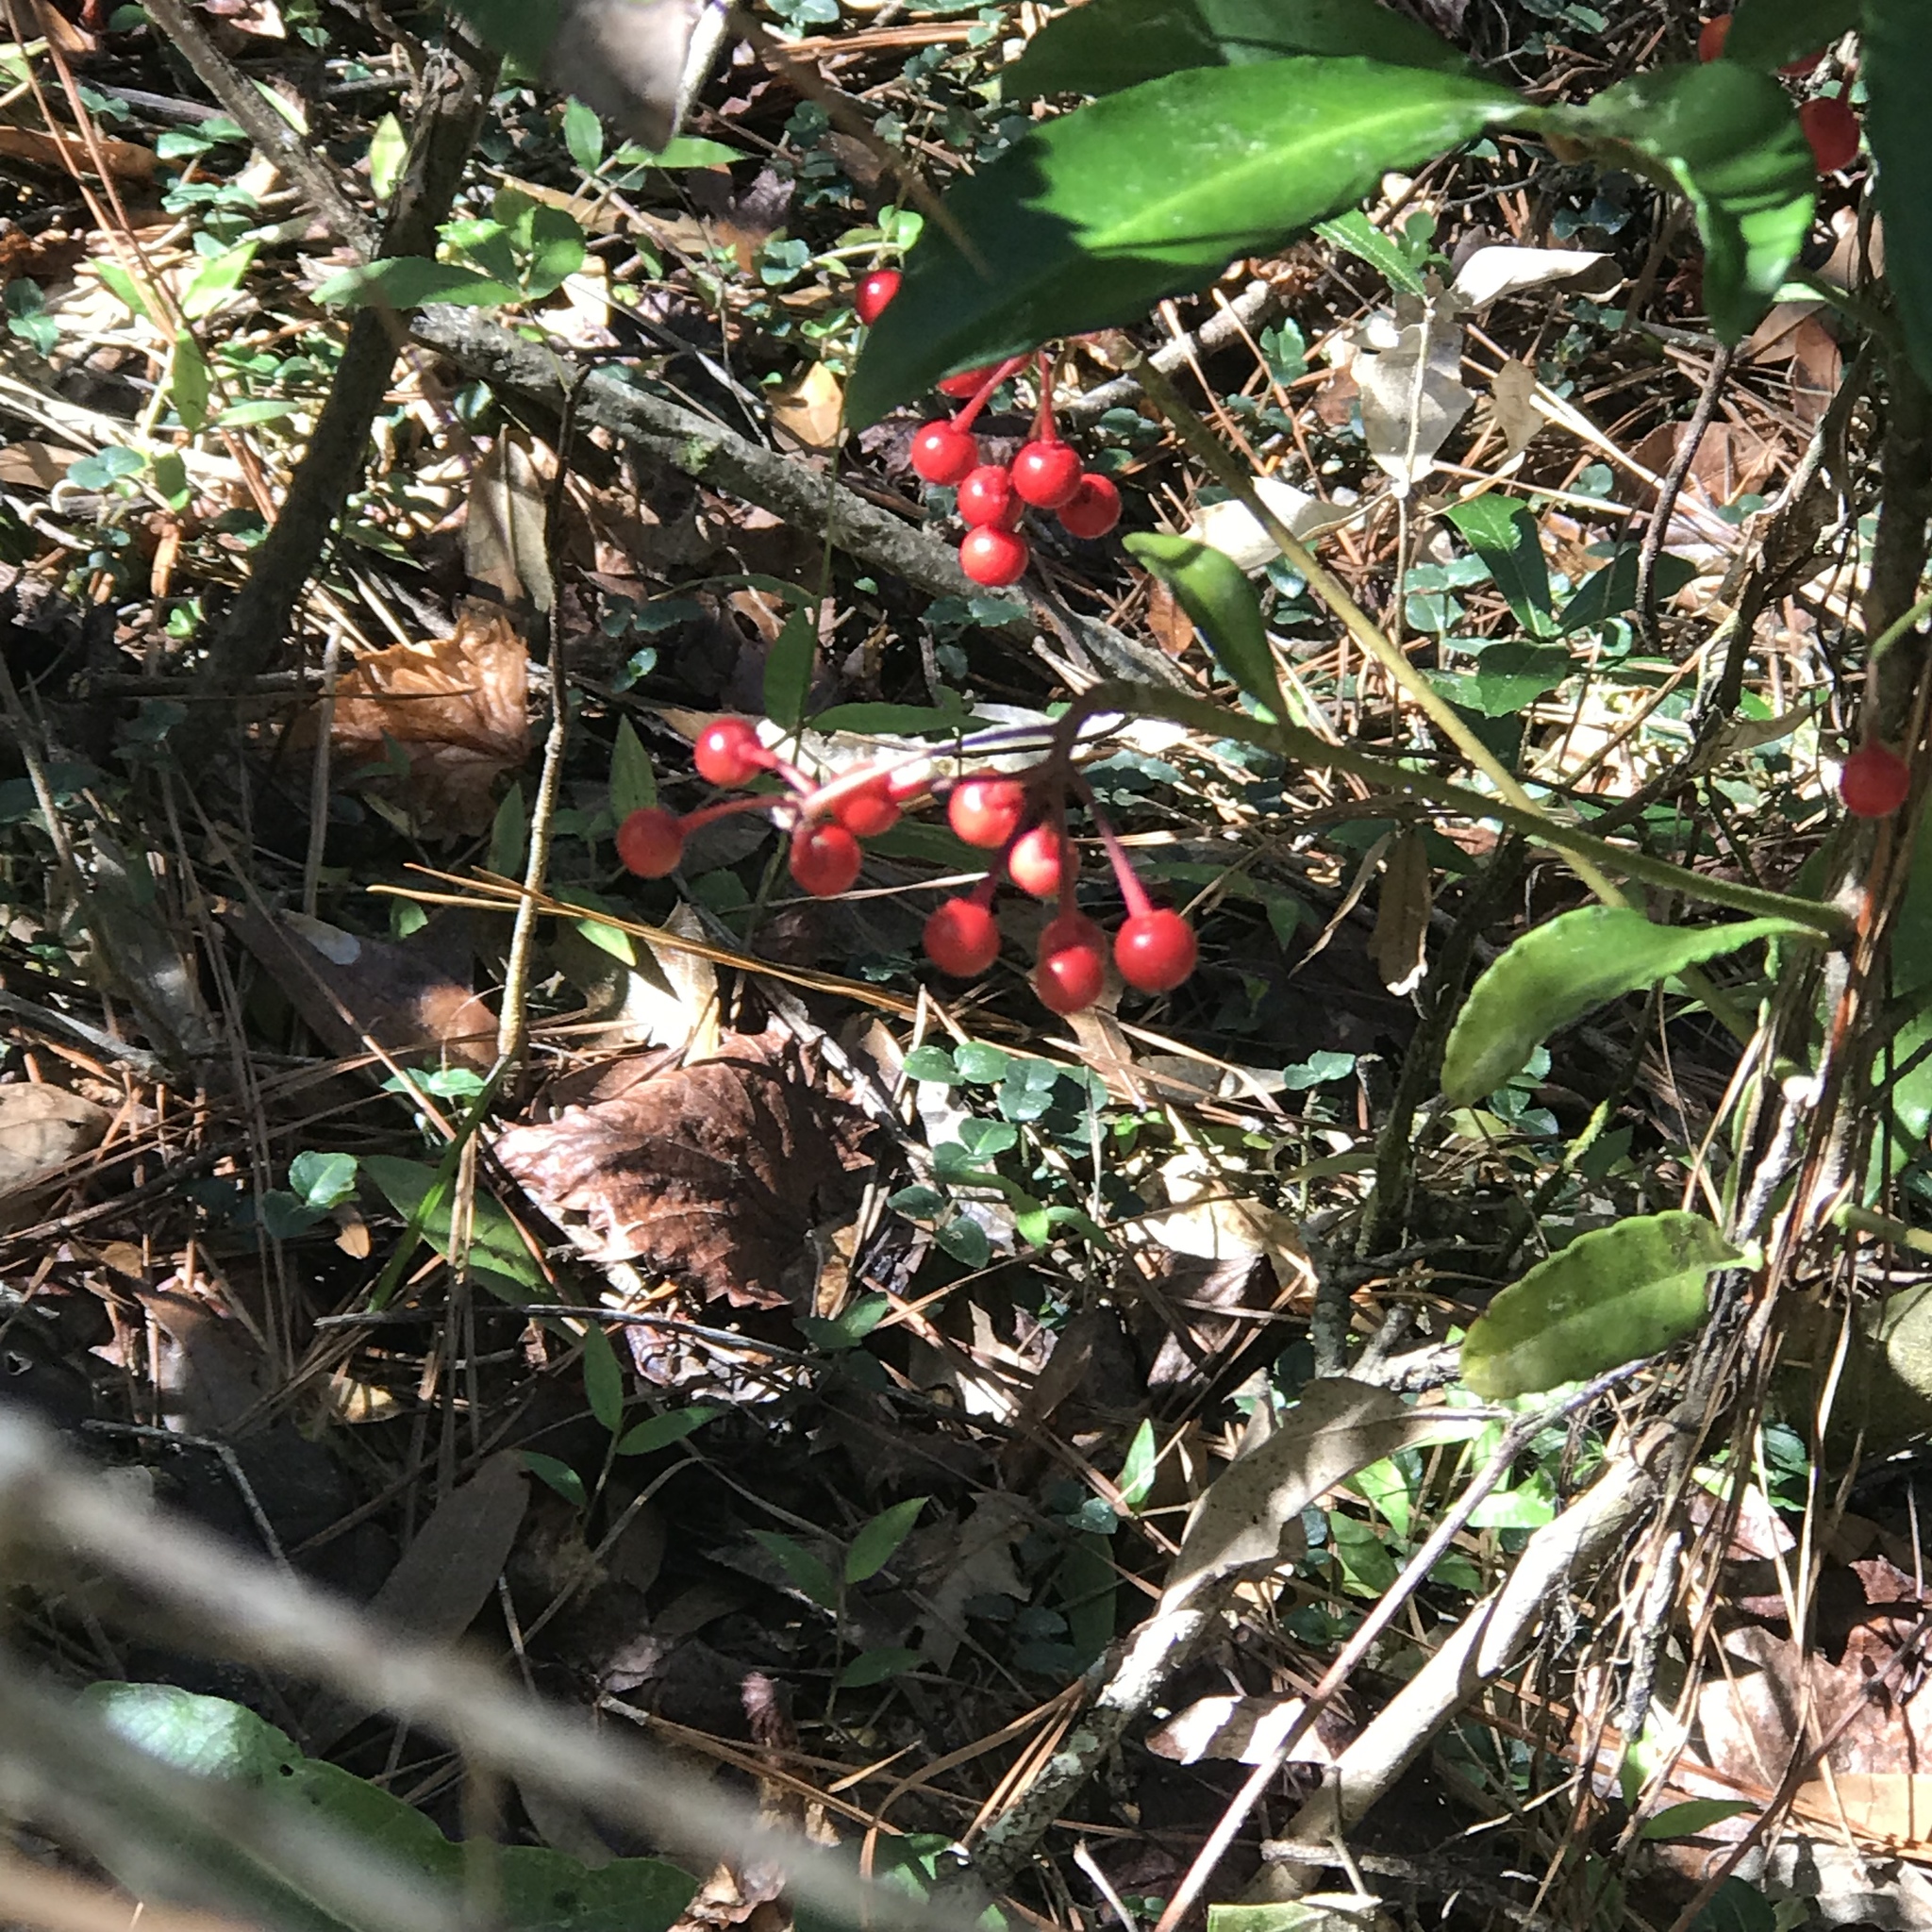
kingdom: Plantae
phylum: Tracheophyta
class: Magnoliopsida
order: Ericales
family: Primulaceae
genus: Ardisia
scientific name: Ardisia crenata
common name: Hen's eyes
